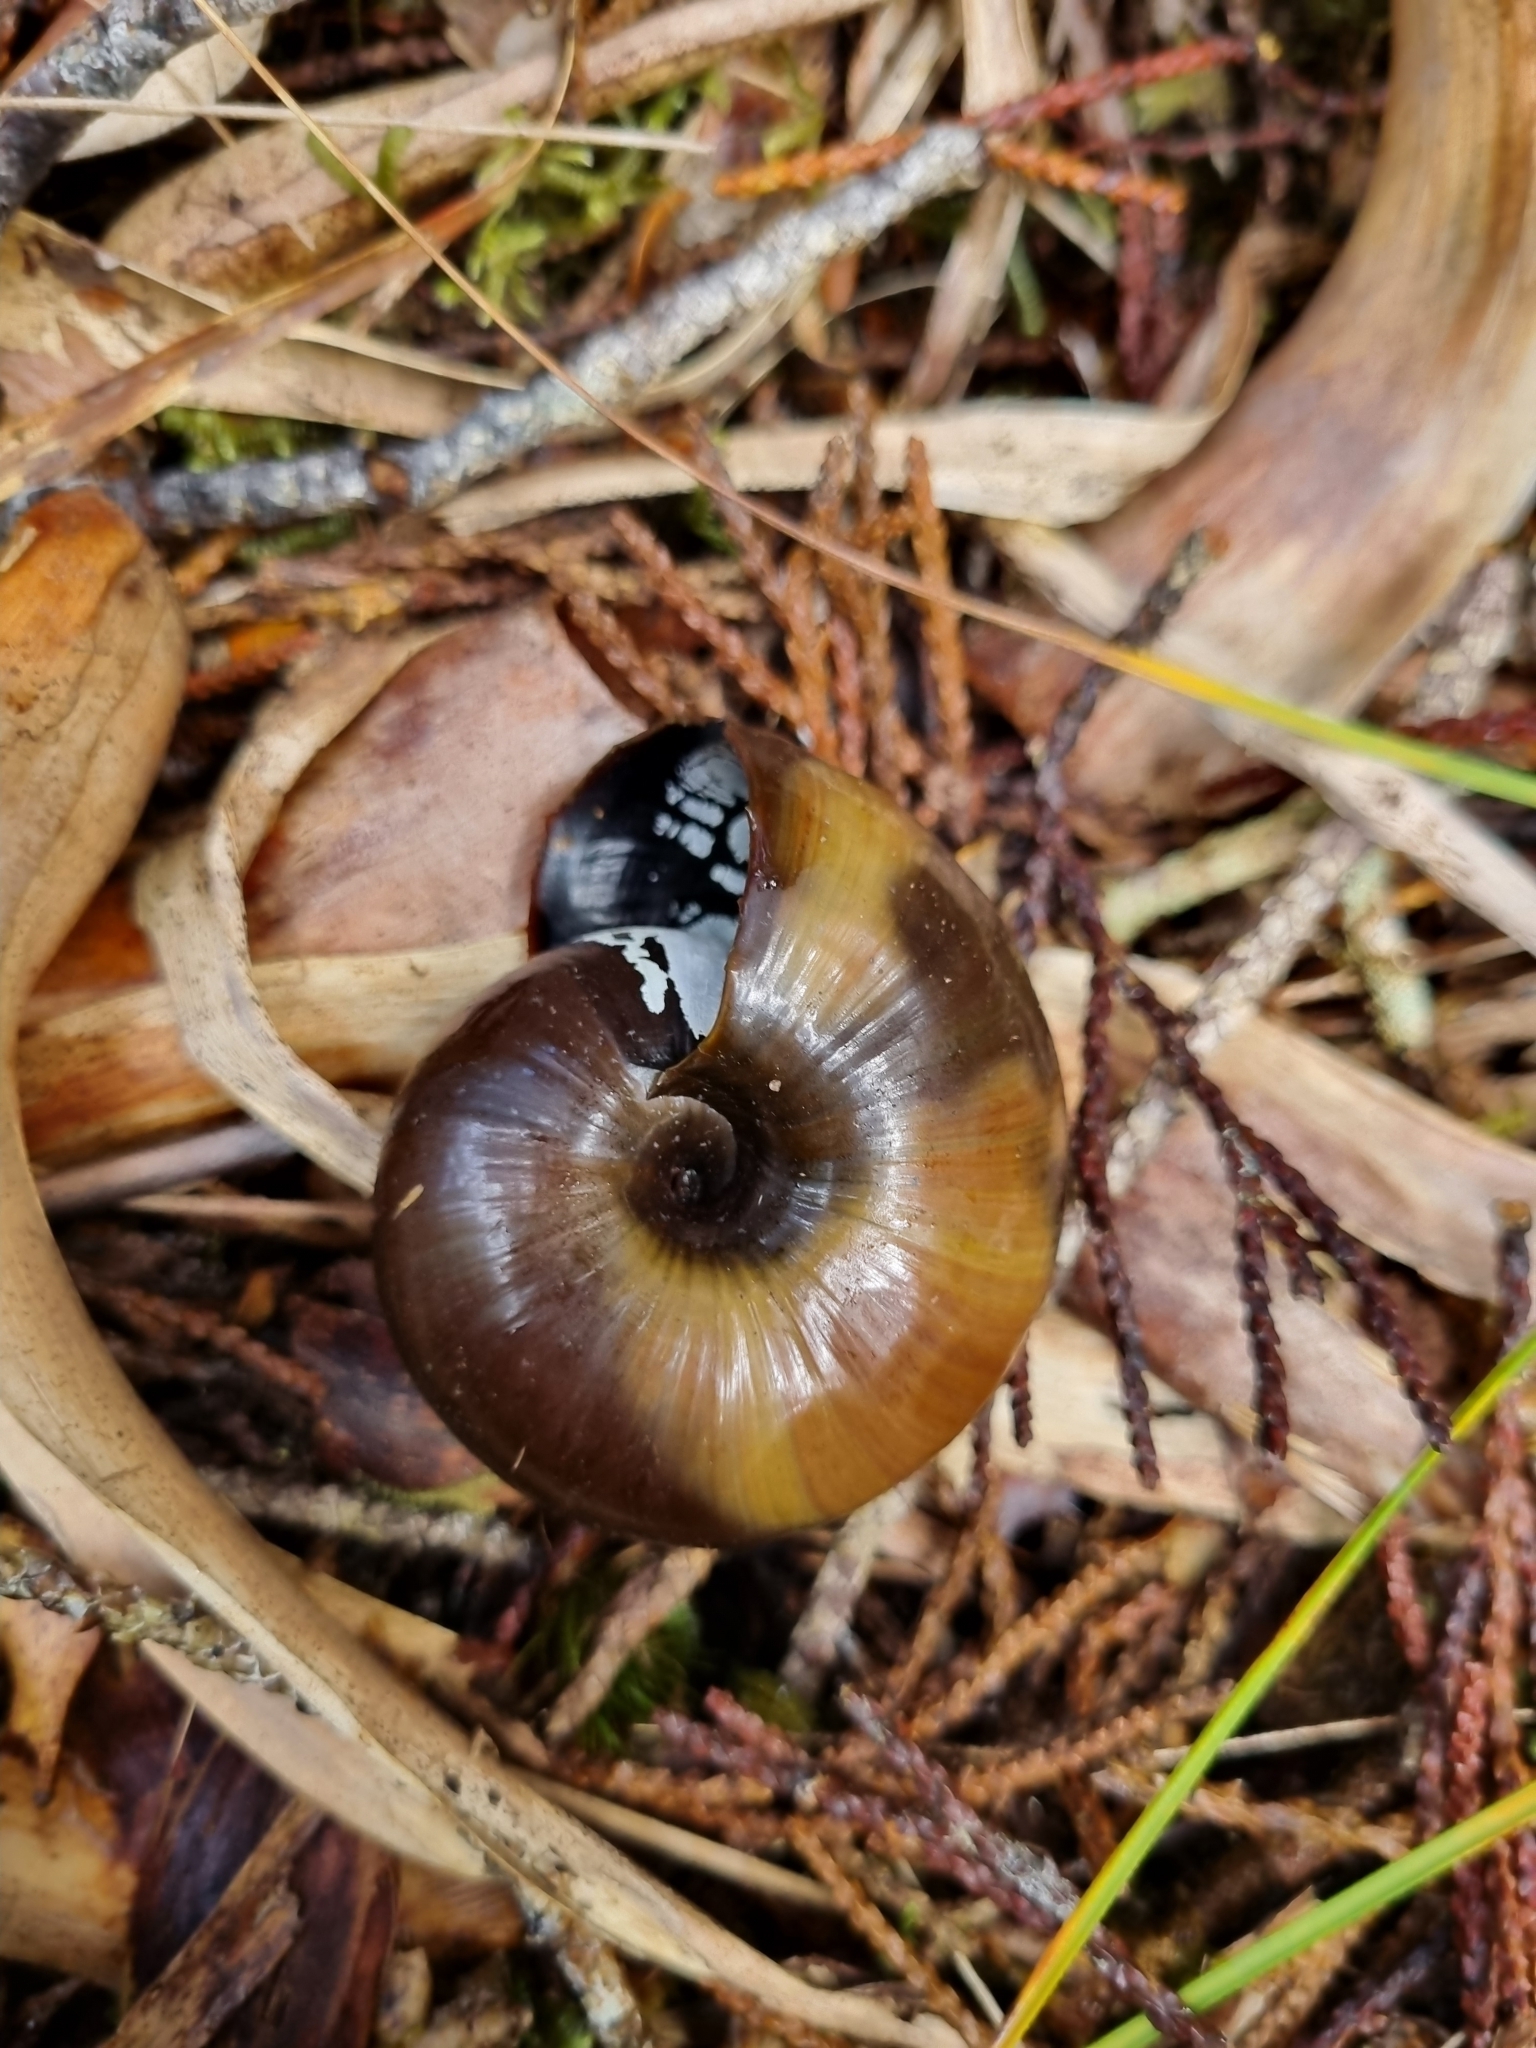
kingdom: Animalia
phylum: Mollusca
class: Gastropoda
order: Stylommatophora
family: Rhytididae
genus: Powelliphanta
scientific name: Powelliphanta superba
